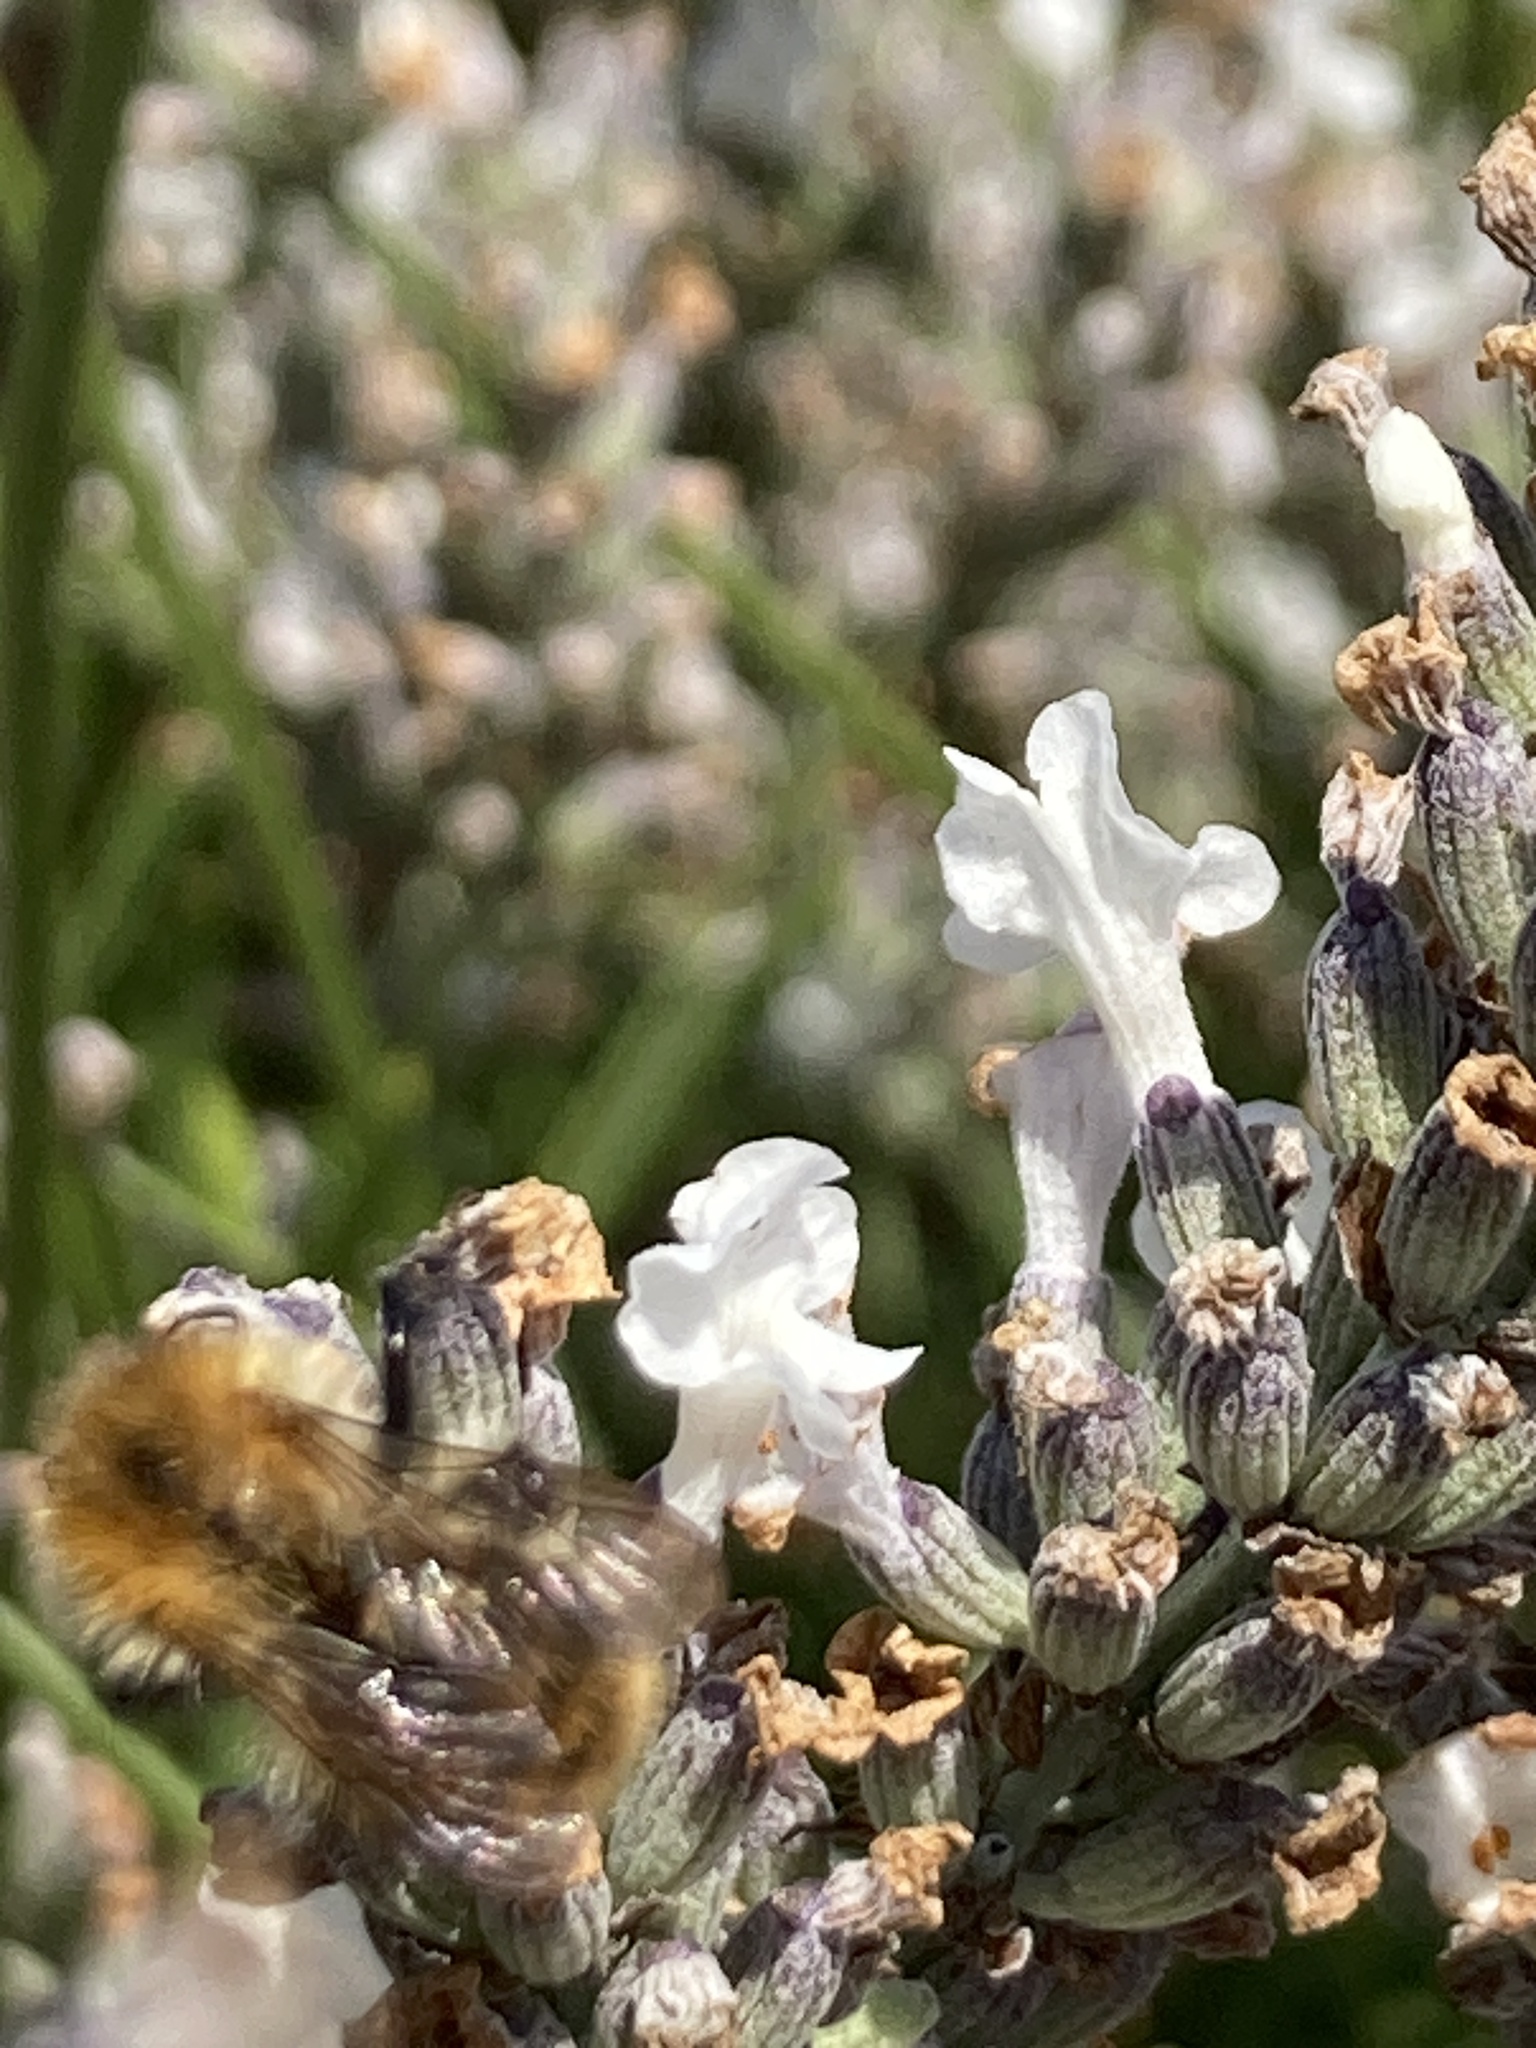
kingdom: Animalia
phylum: Arthropoda
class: Insecta
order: Hymenoptera
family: Apidae
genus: Bombus
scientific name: Bombus pascuorum
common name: Common carder bee
